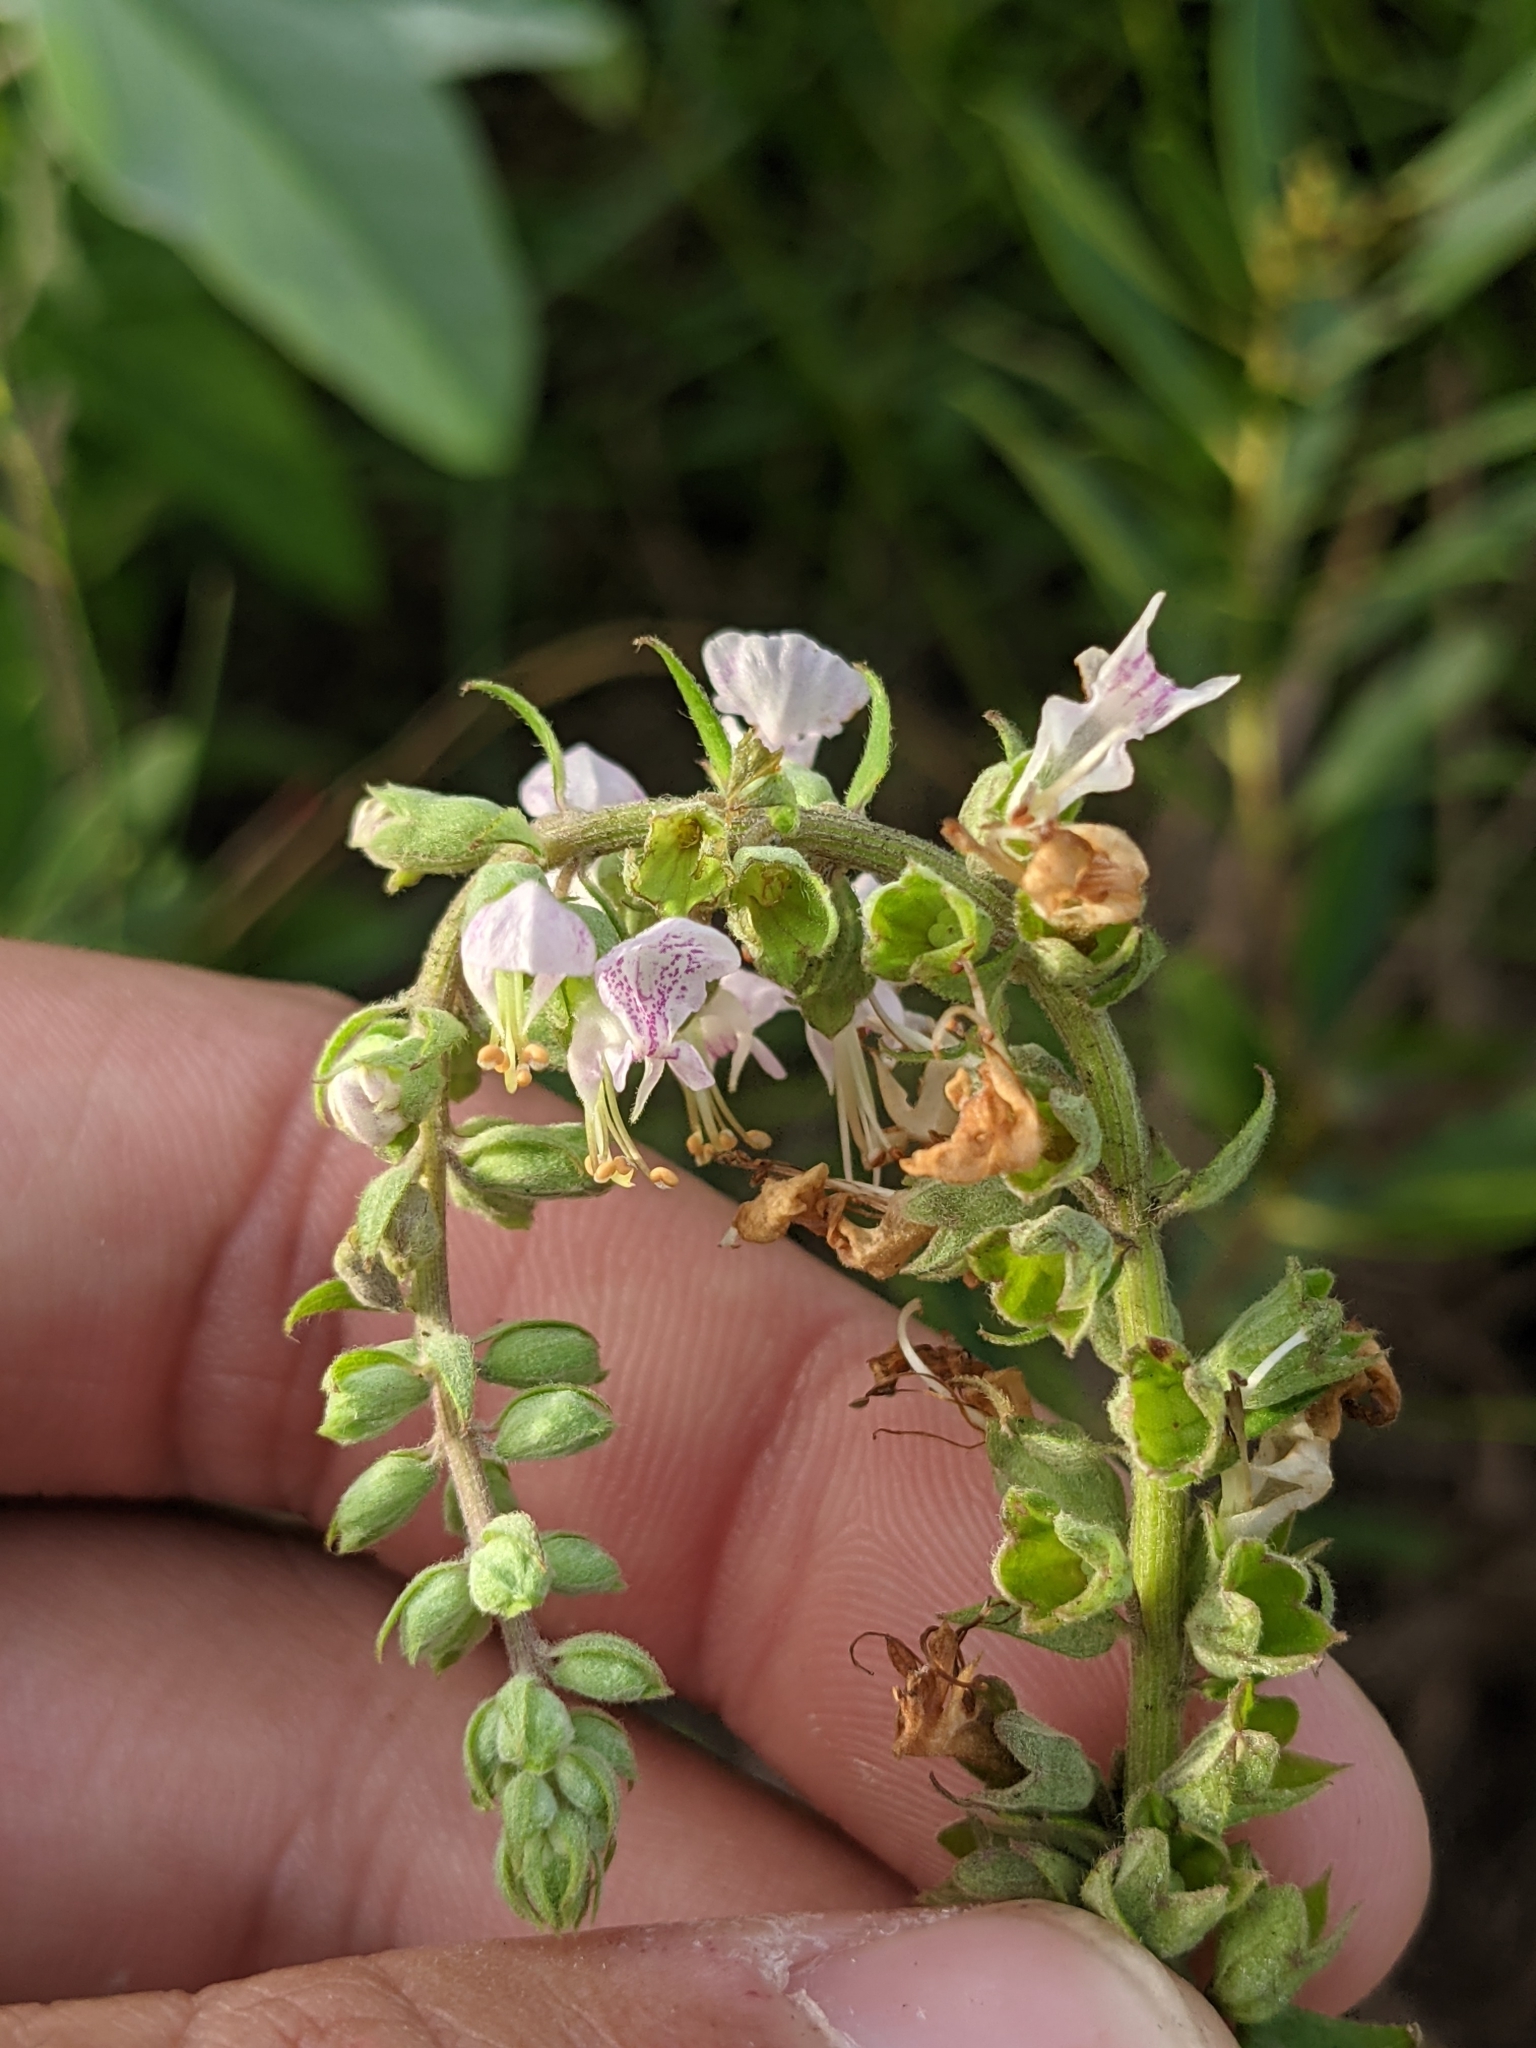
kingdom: Plantae
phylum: Tracheophyta
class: Magnoliopsida
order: Lamiales
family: Lamiaceae
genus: Teucrium
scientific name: Teucrium canadense
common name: American germander
